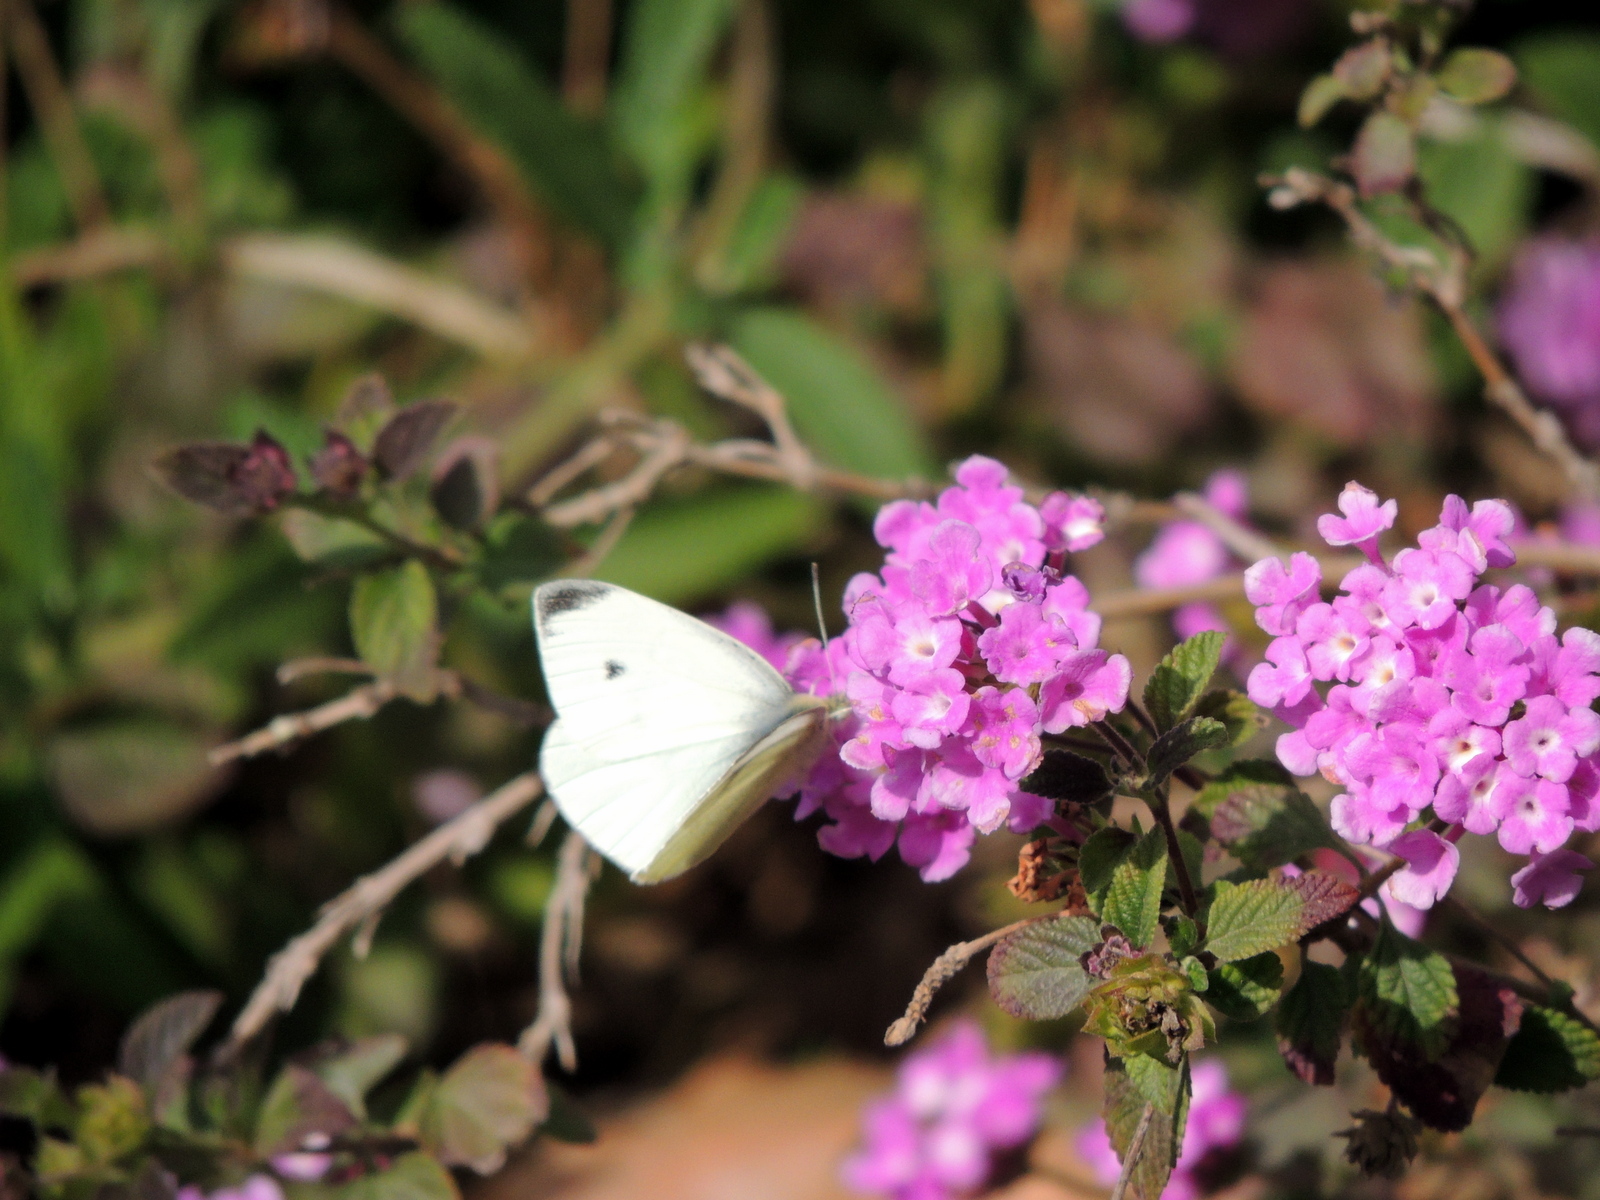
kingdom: Animalia
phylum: Arthropoda
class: Insecta
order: Lepidoptera
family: Pieridae
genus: Pieris
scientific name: Pieris rapae
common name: Small white
